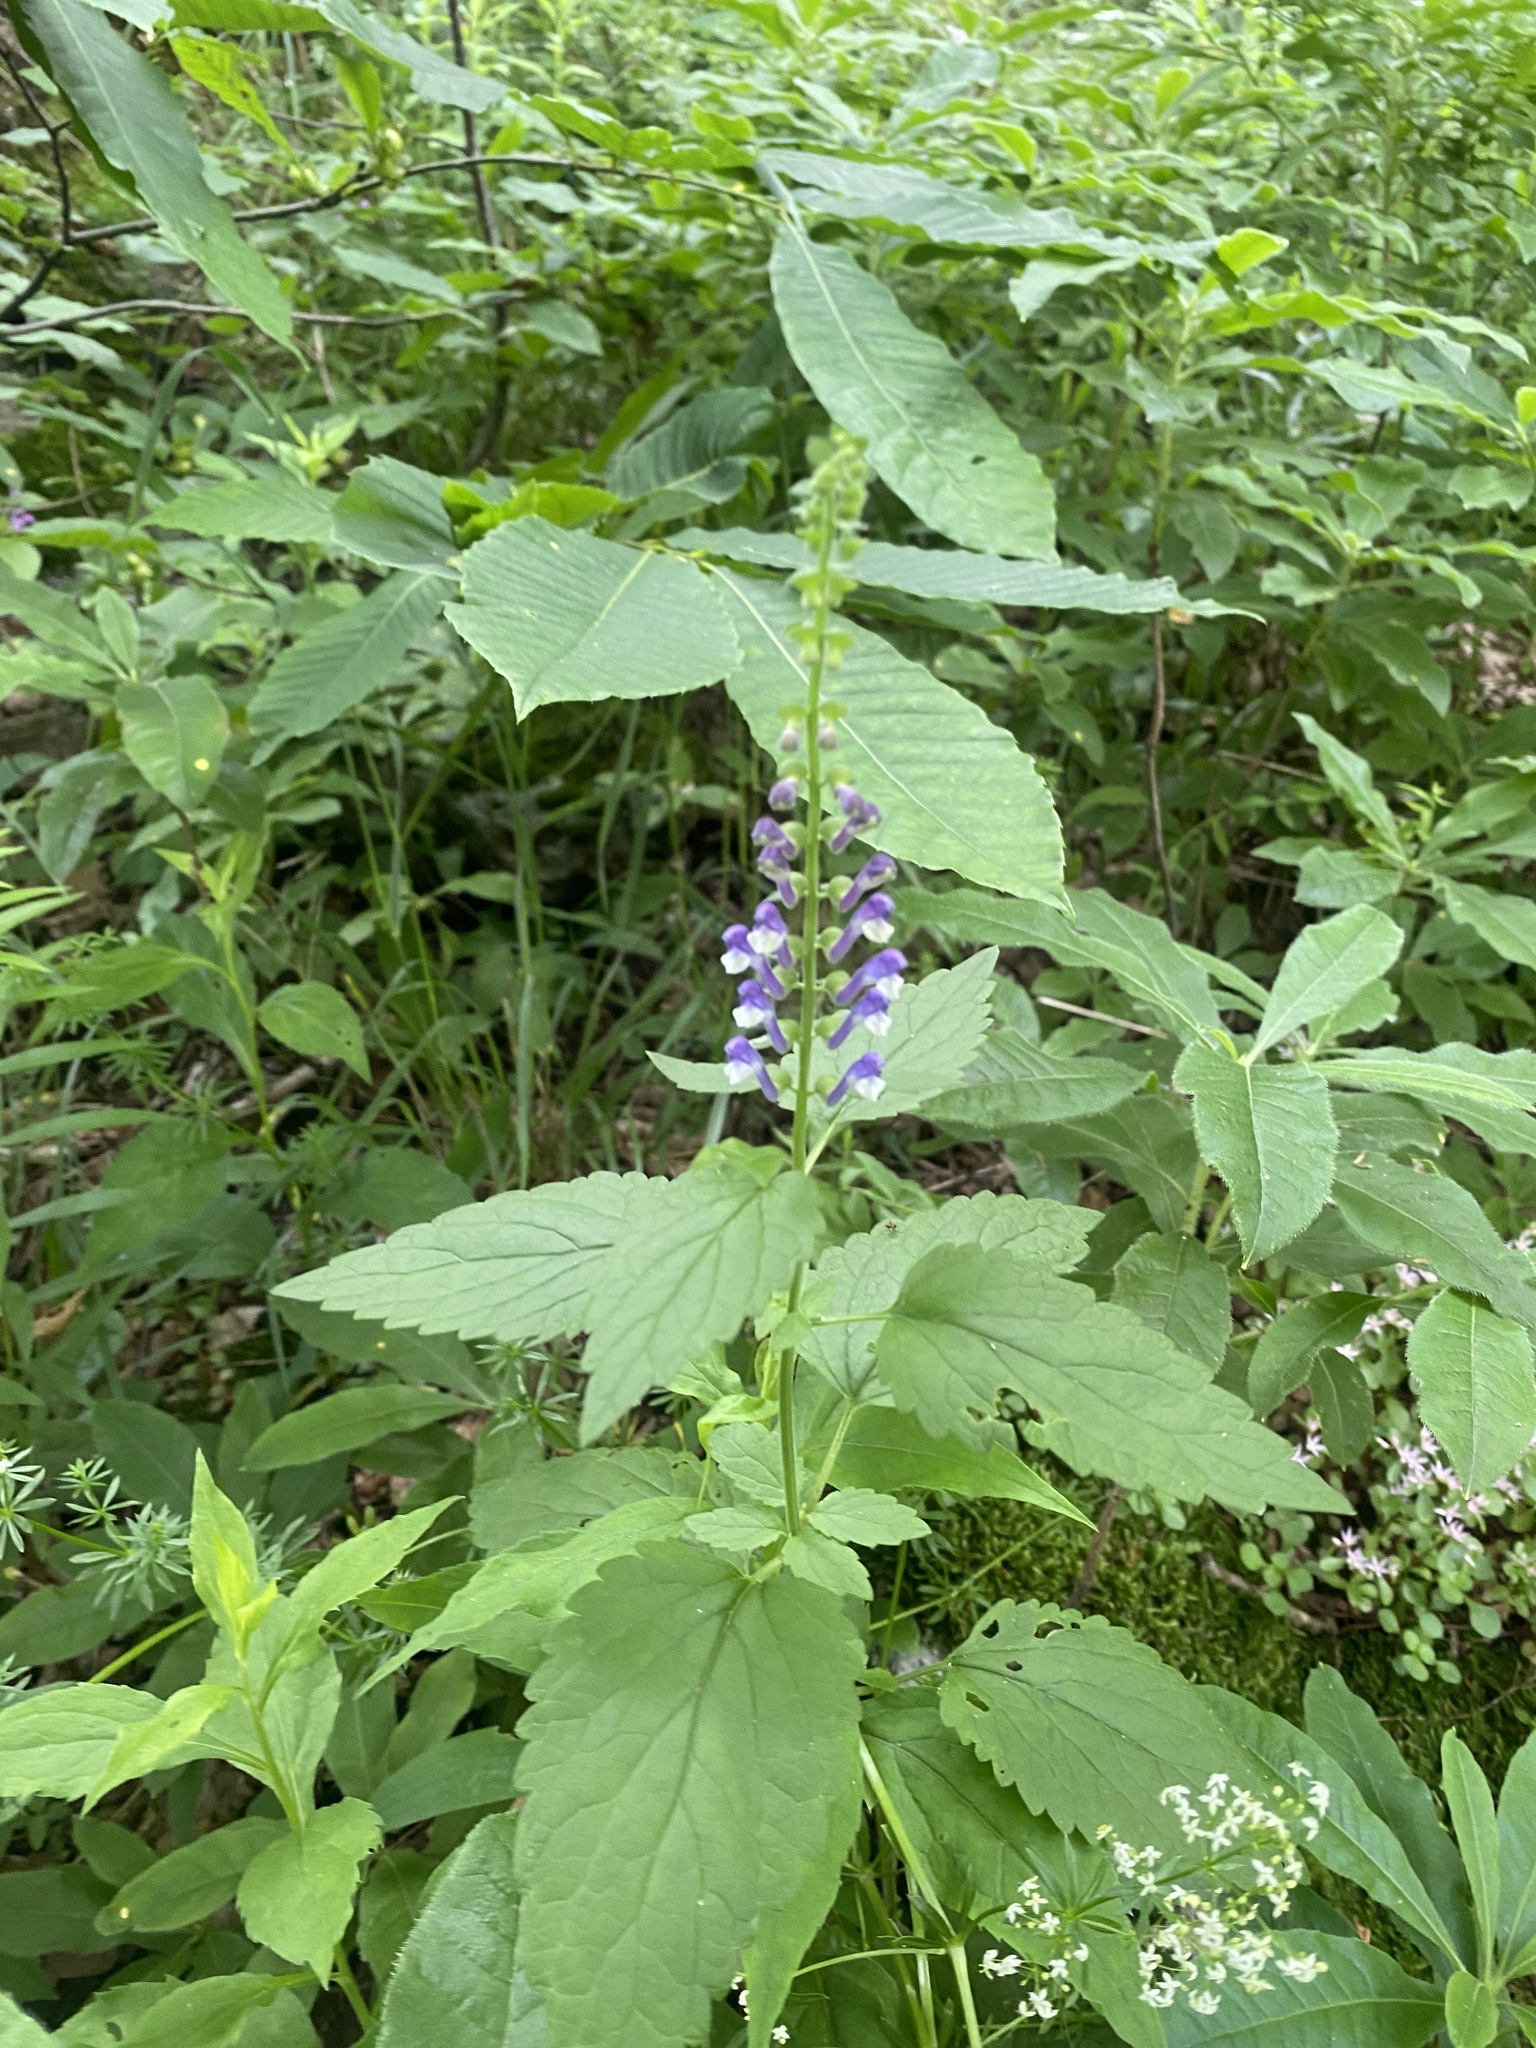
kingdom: Plantae
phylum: Tracheophyta
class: Magnoliopsida
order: Lamiales
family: Lamiaceae
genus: Scutellaria
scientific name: Scutellaria altissima
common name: Somerset skullcap
